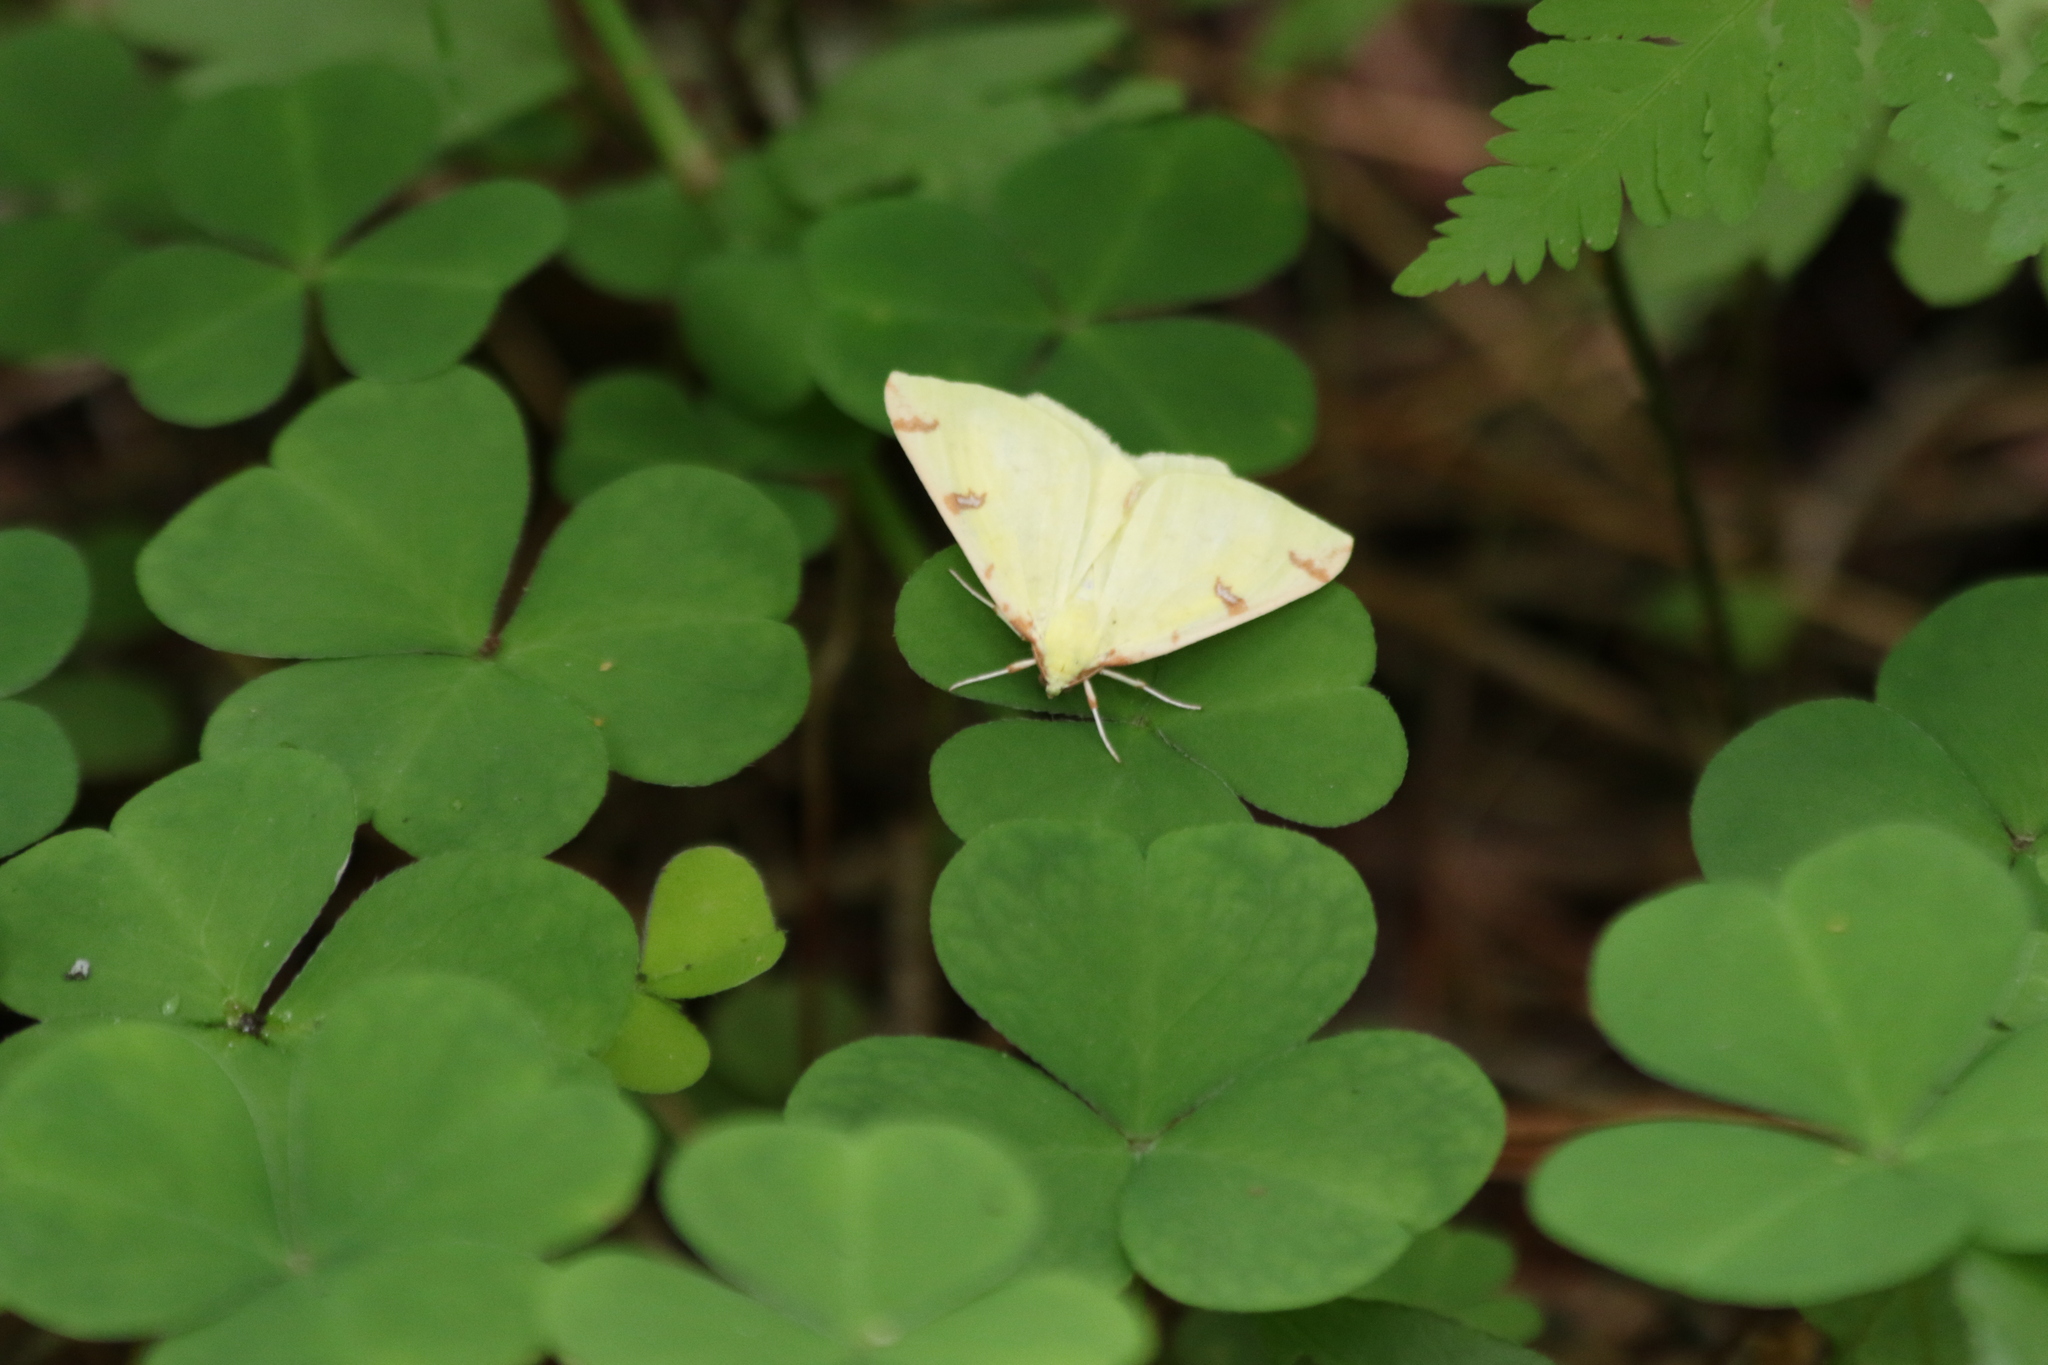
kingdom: Animalia
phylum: Arthropoda
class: Insecta
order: Lepidoptera
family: Geometridae
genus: Opisthograptis
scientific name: Opisthograptis luteolata
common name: Brimstone moth
